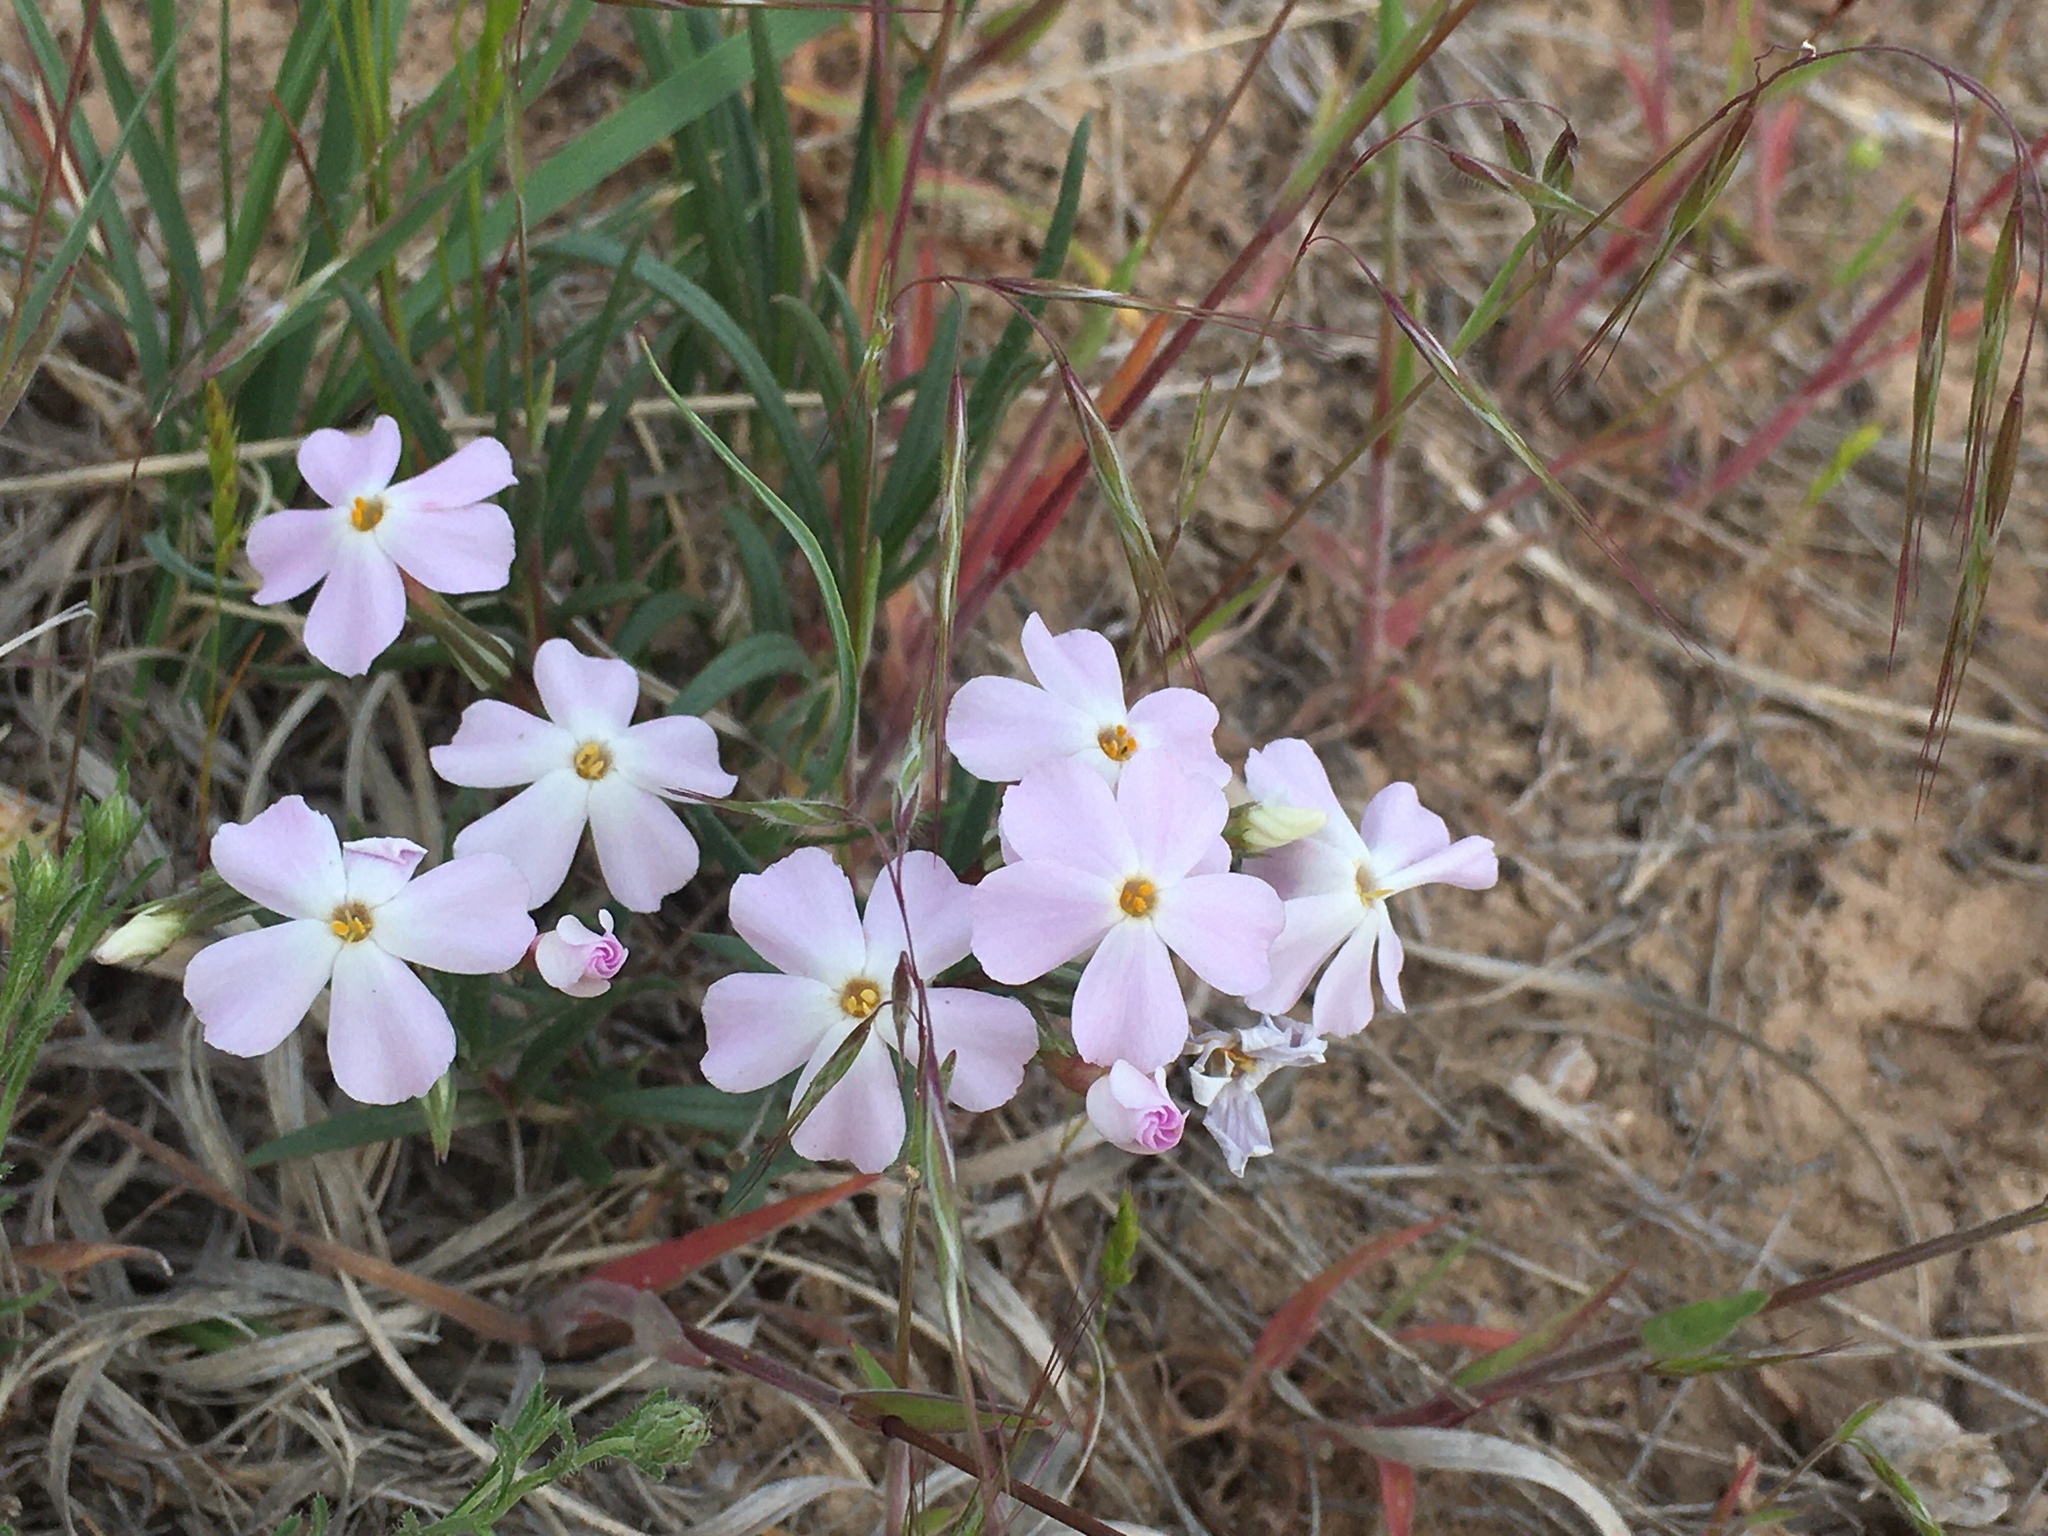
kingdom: Plantae
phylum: Tracheophyta
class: Magnoliopsida
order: Ericales
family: Polemoniaceae
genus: Phlox
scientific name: Phlox longifolia
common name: Longleaf phlox
